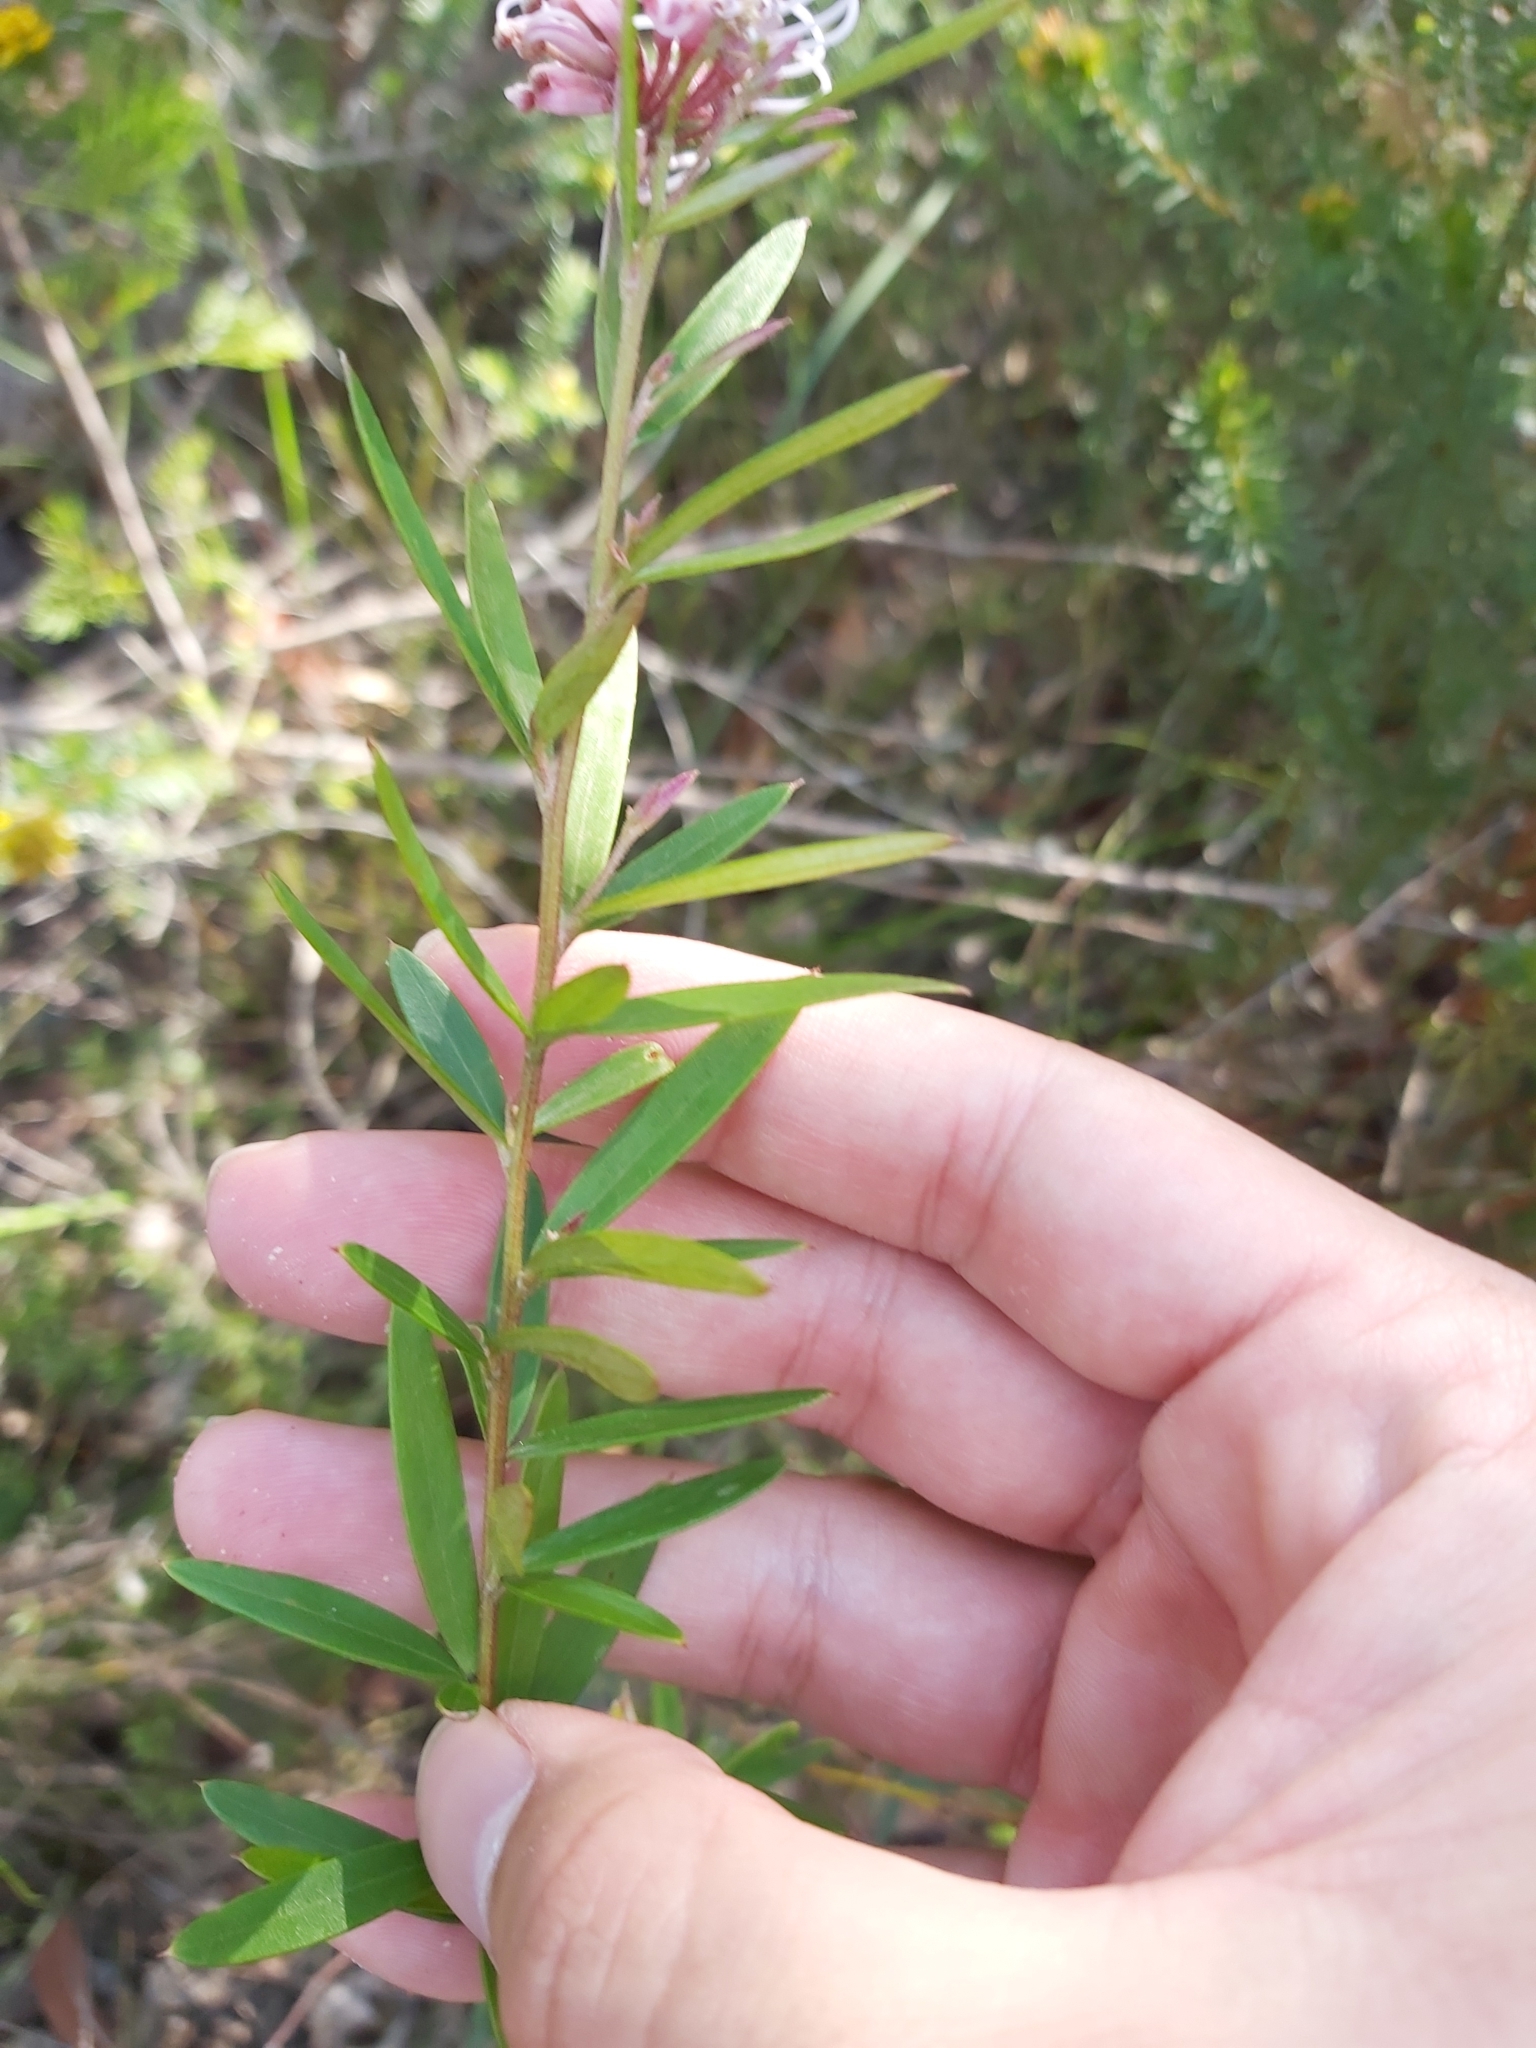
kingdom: Plantae
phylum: Tracheophyta
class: Magnoliopsida
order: Proteales
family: Proteaceae
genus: Grevillea
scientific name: Grevillea sericea
